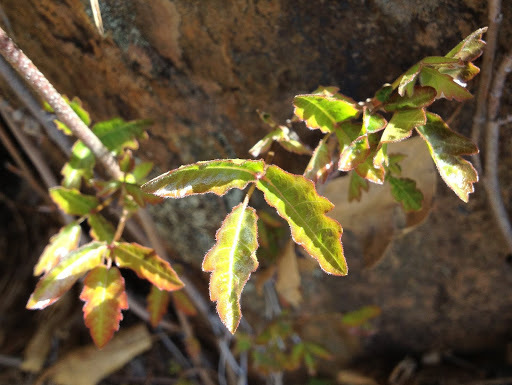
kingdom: Plantae
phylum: Tracheophyta
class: Magnoliopsida
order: Sapindales
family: Anacardiaceae
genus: Toxicodendron
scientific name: Toxicodendron diversilobum
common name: Pacific poison-oak
